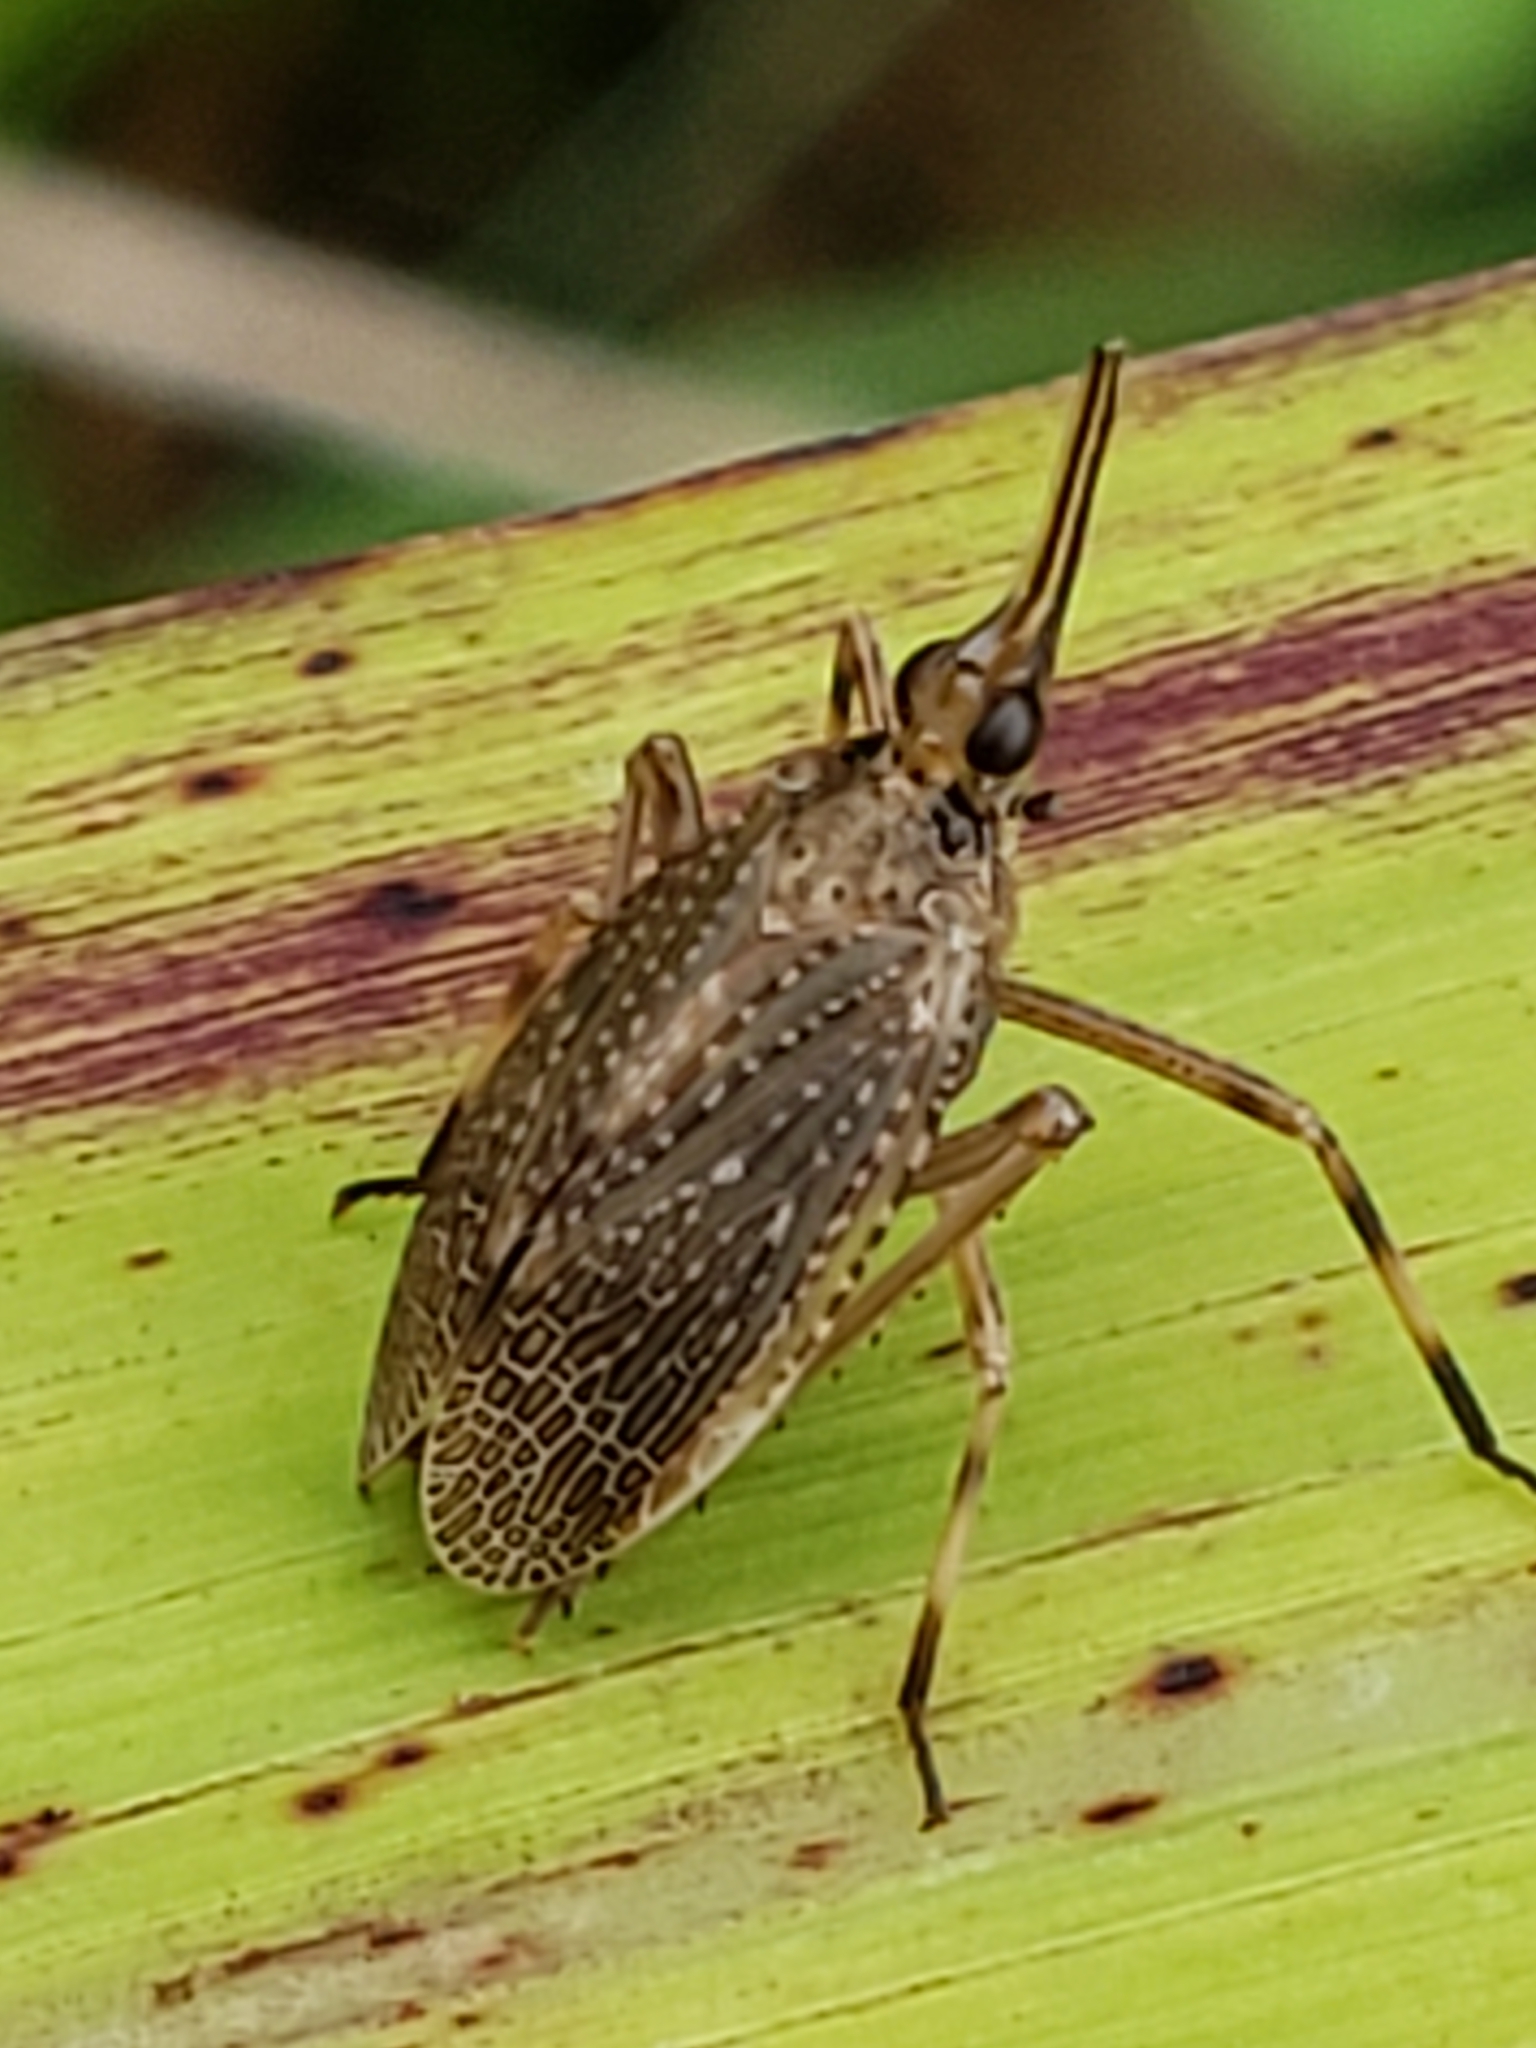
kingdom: Animalia
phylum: Arthropoda
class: Insecta
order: Hemiptera
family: Dictyopharidae
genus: Scolops
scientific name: Scolops sulcipes
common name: Partridge planthopper
